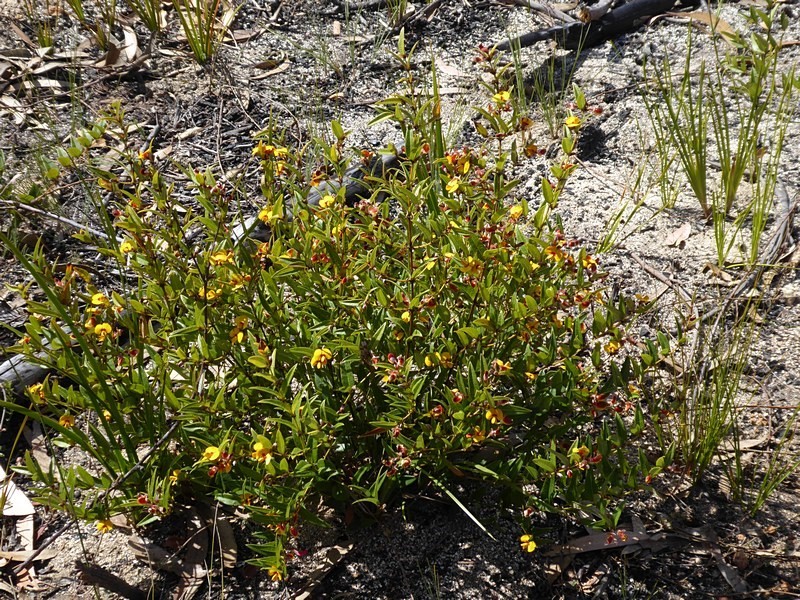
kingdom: Plantae
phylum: Tracheophyta
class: Magnoliopsida
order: Fabales
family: Fabaceae
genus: Platylobium
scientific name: Platylobium parviflorum
